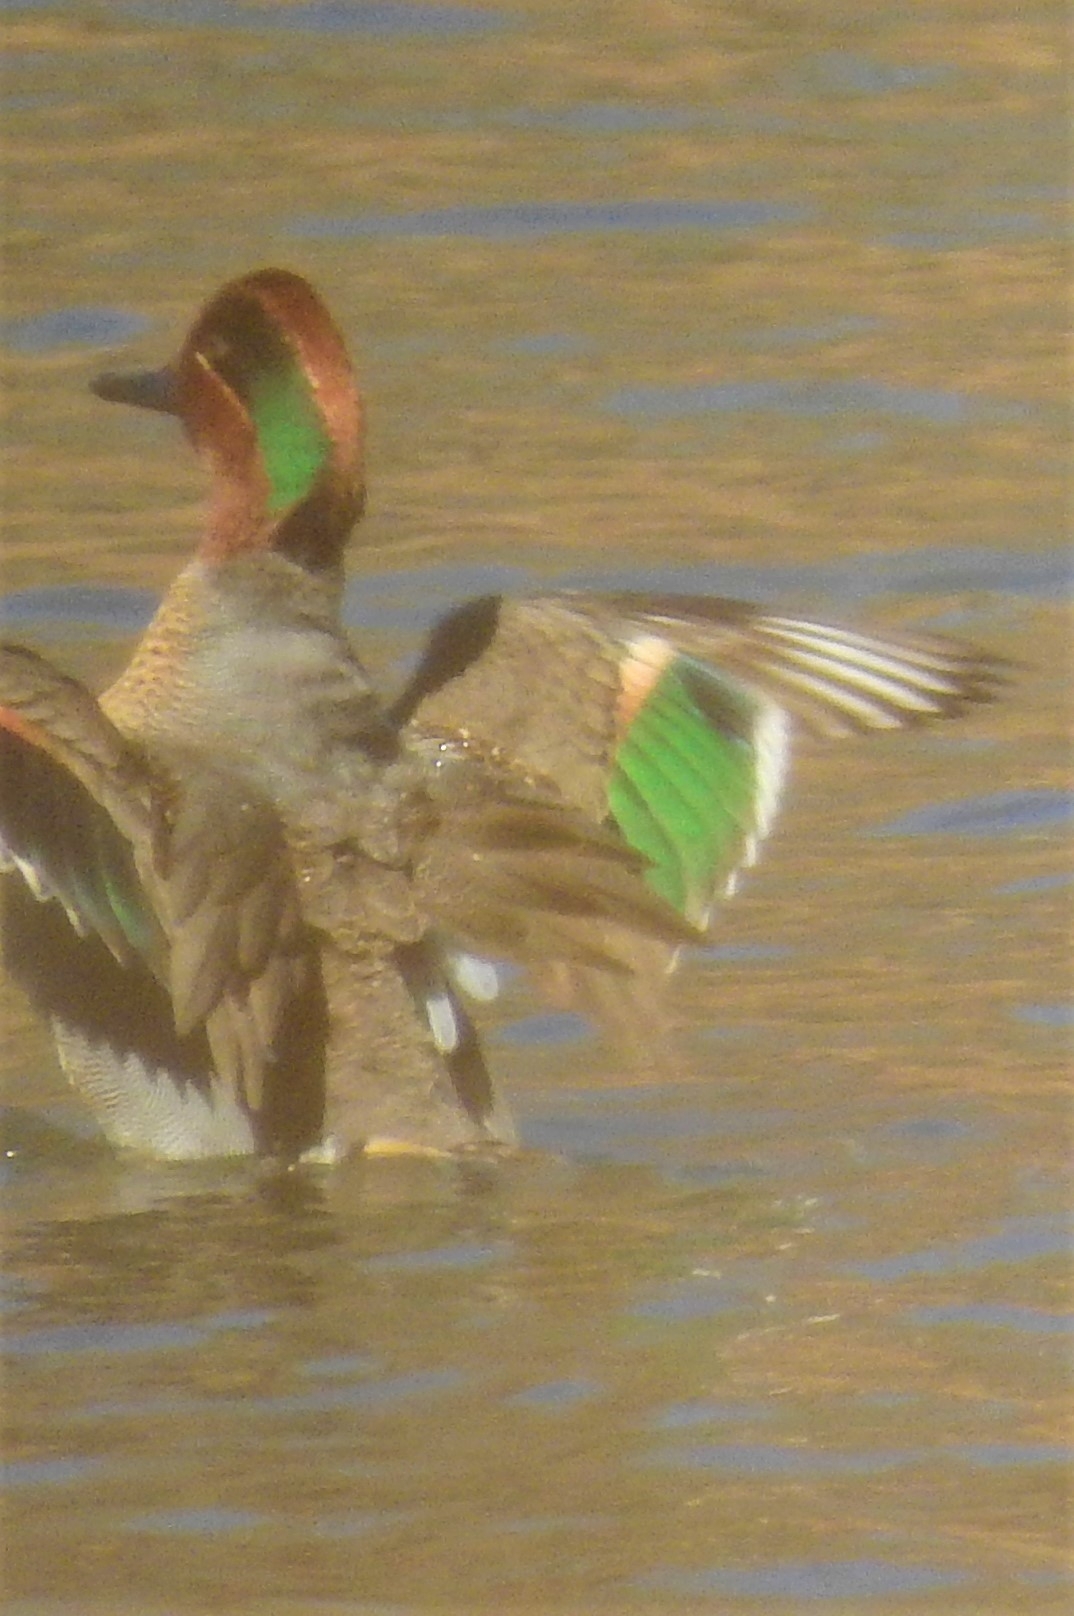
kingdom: Animalia
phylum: Chordata
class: Aves
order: Anseriformes
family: Anatidae
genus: Anas
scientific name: Anas crecca
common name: Eurasian teal
